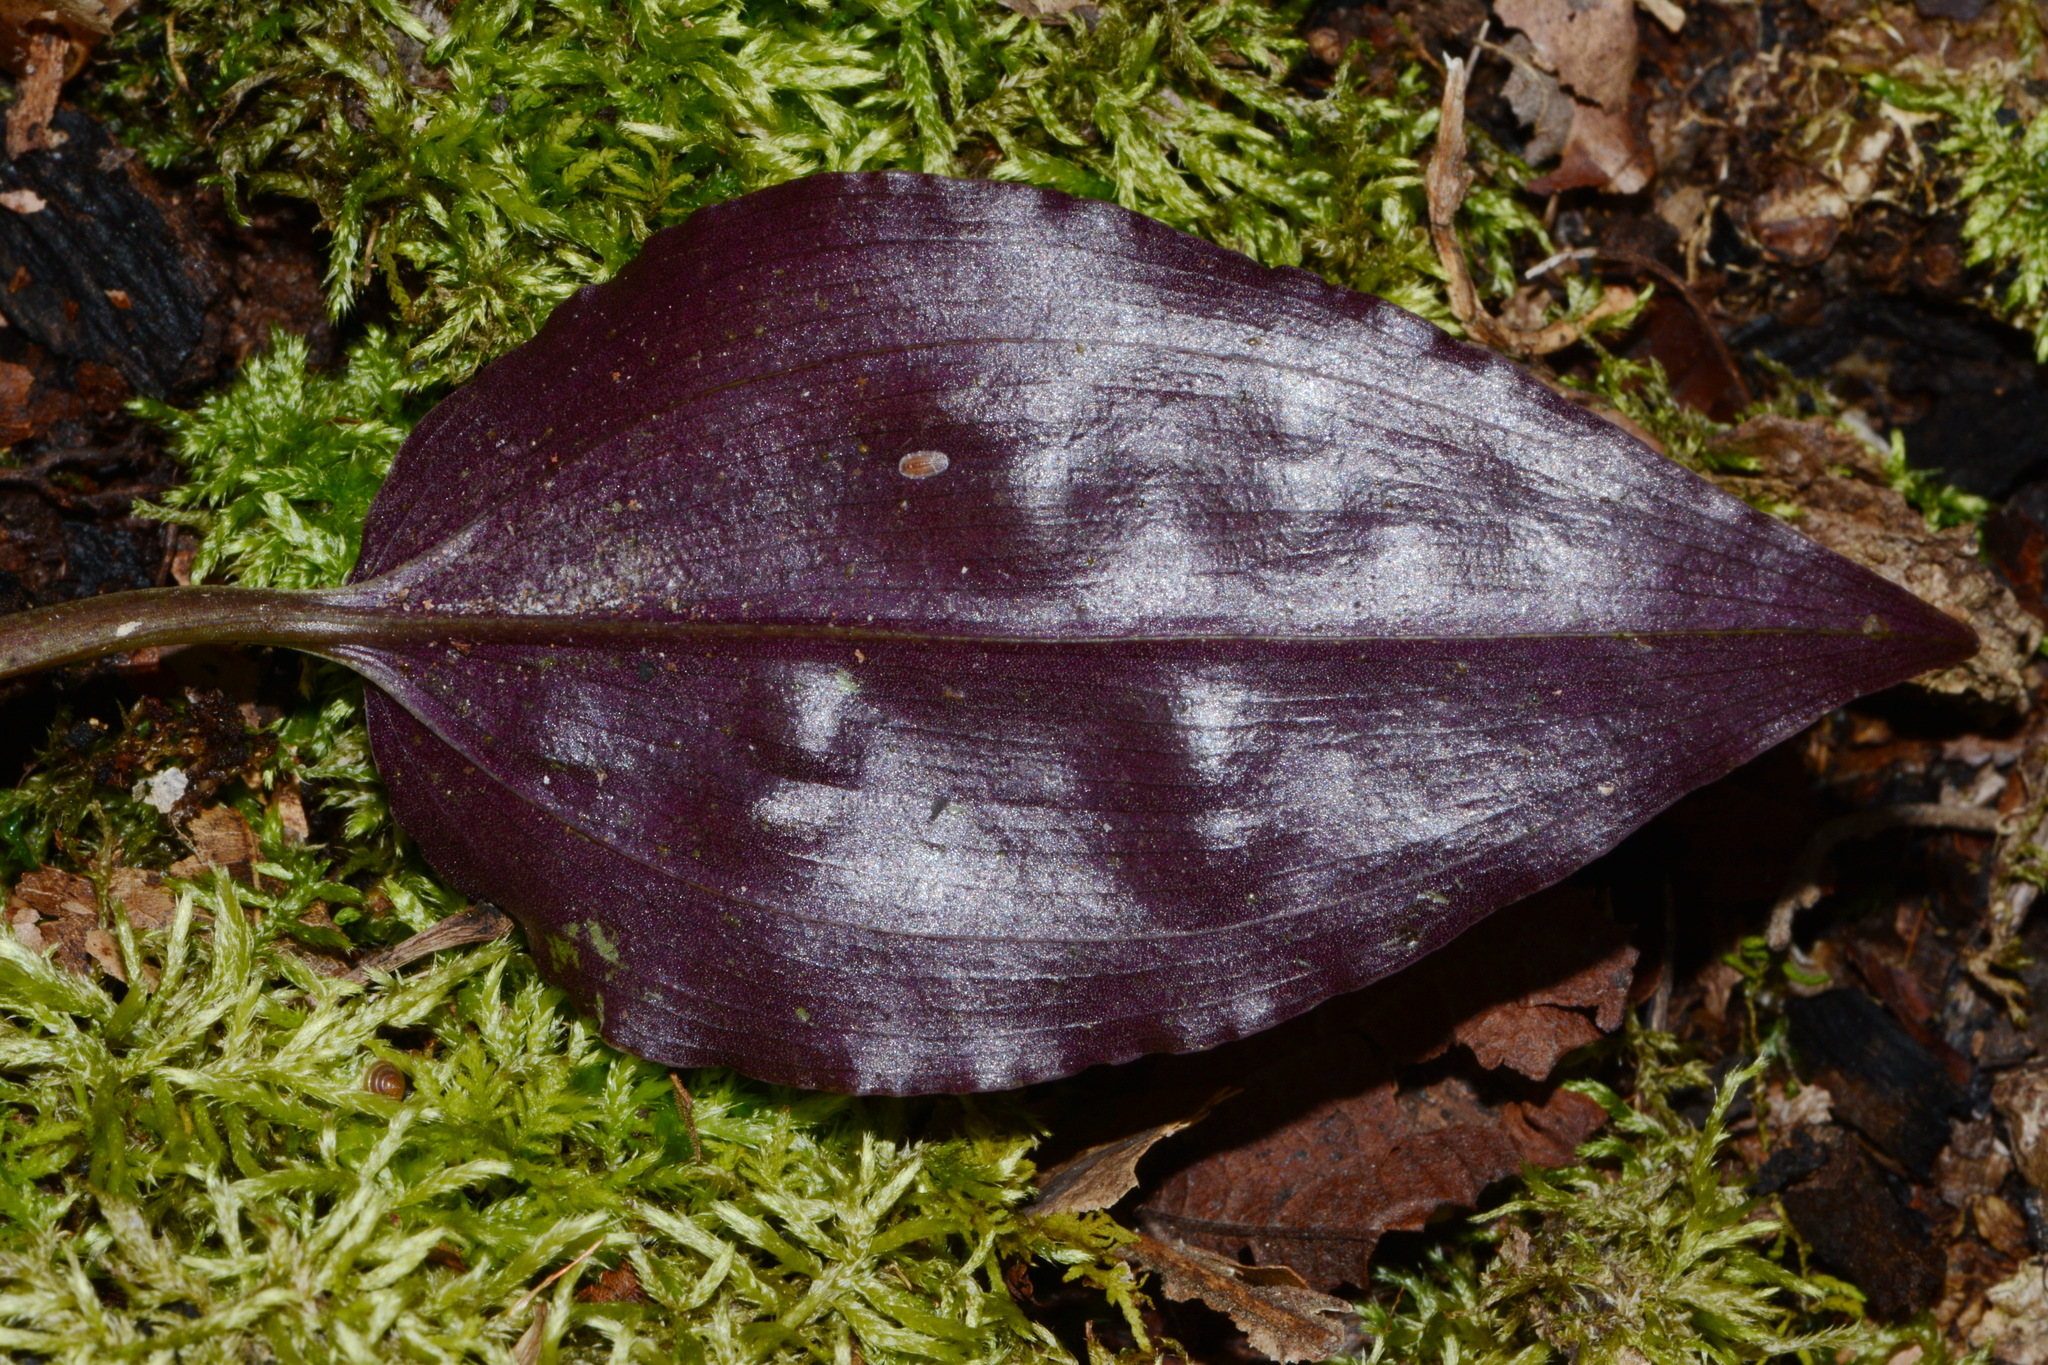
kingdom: Plantae
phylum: Tracheophyta
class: Liliopsida
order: Asparagales
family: Orchidaceae
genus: Tipularia
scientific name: Tipularia discolor
